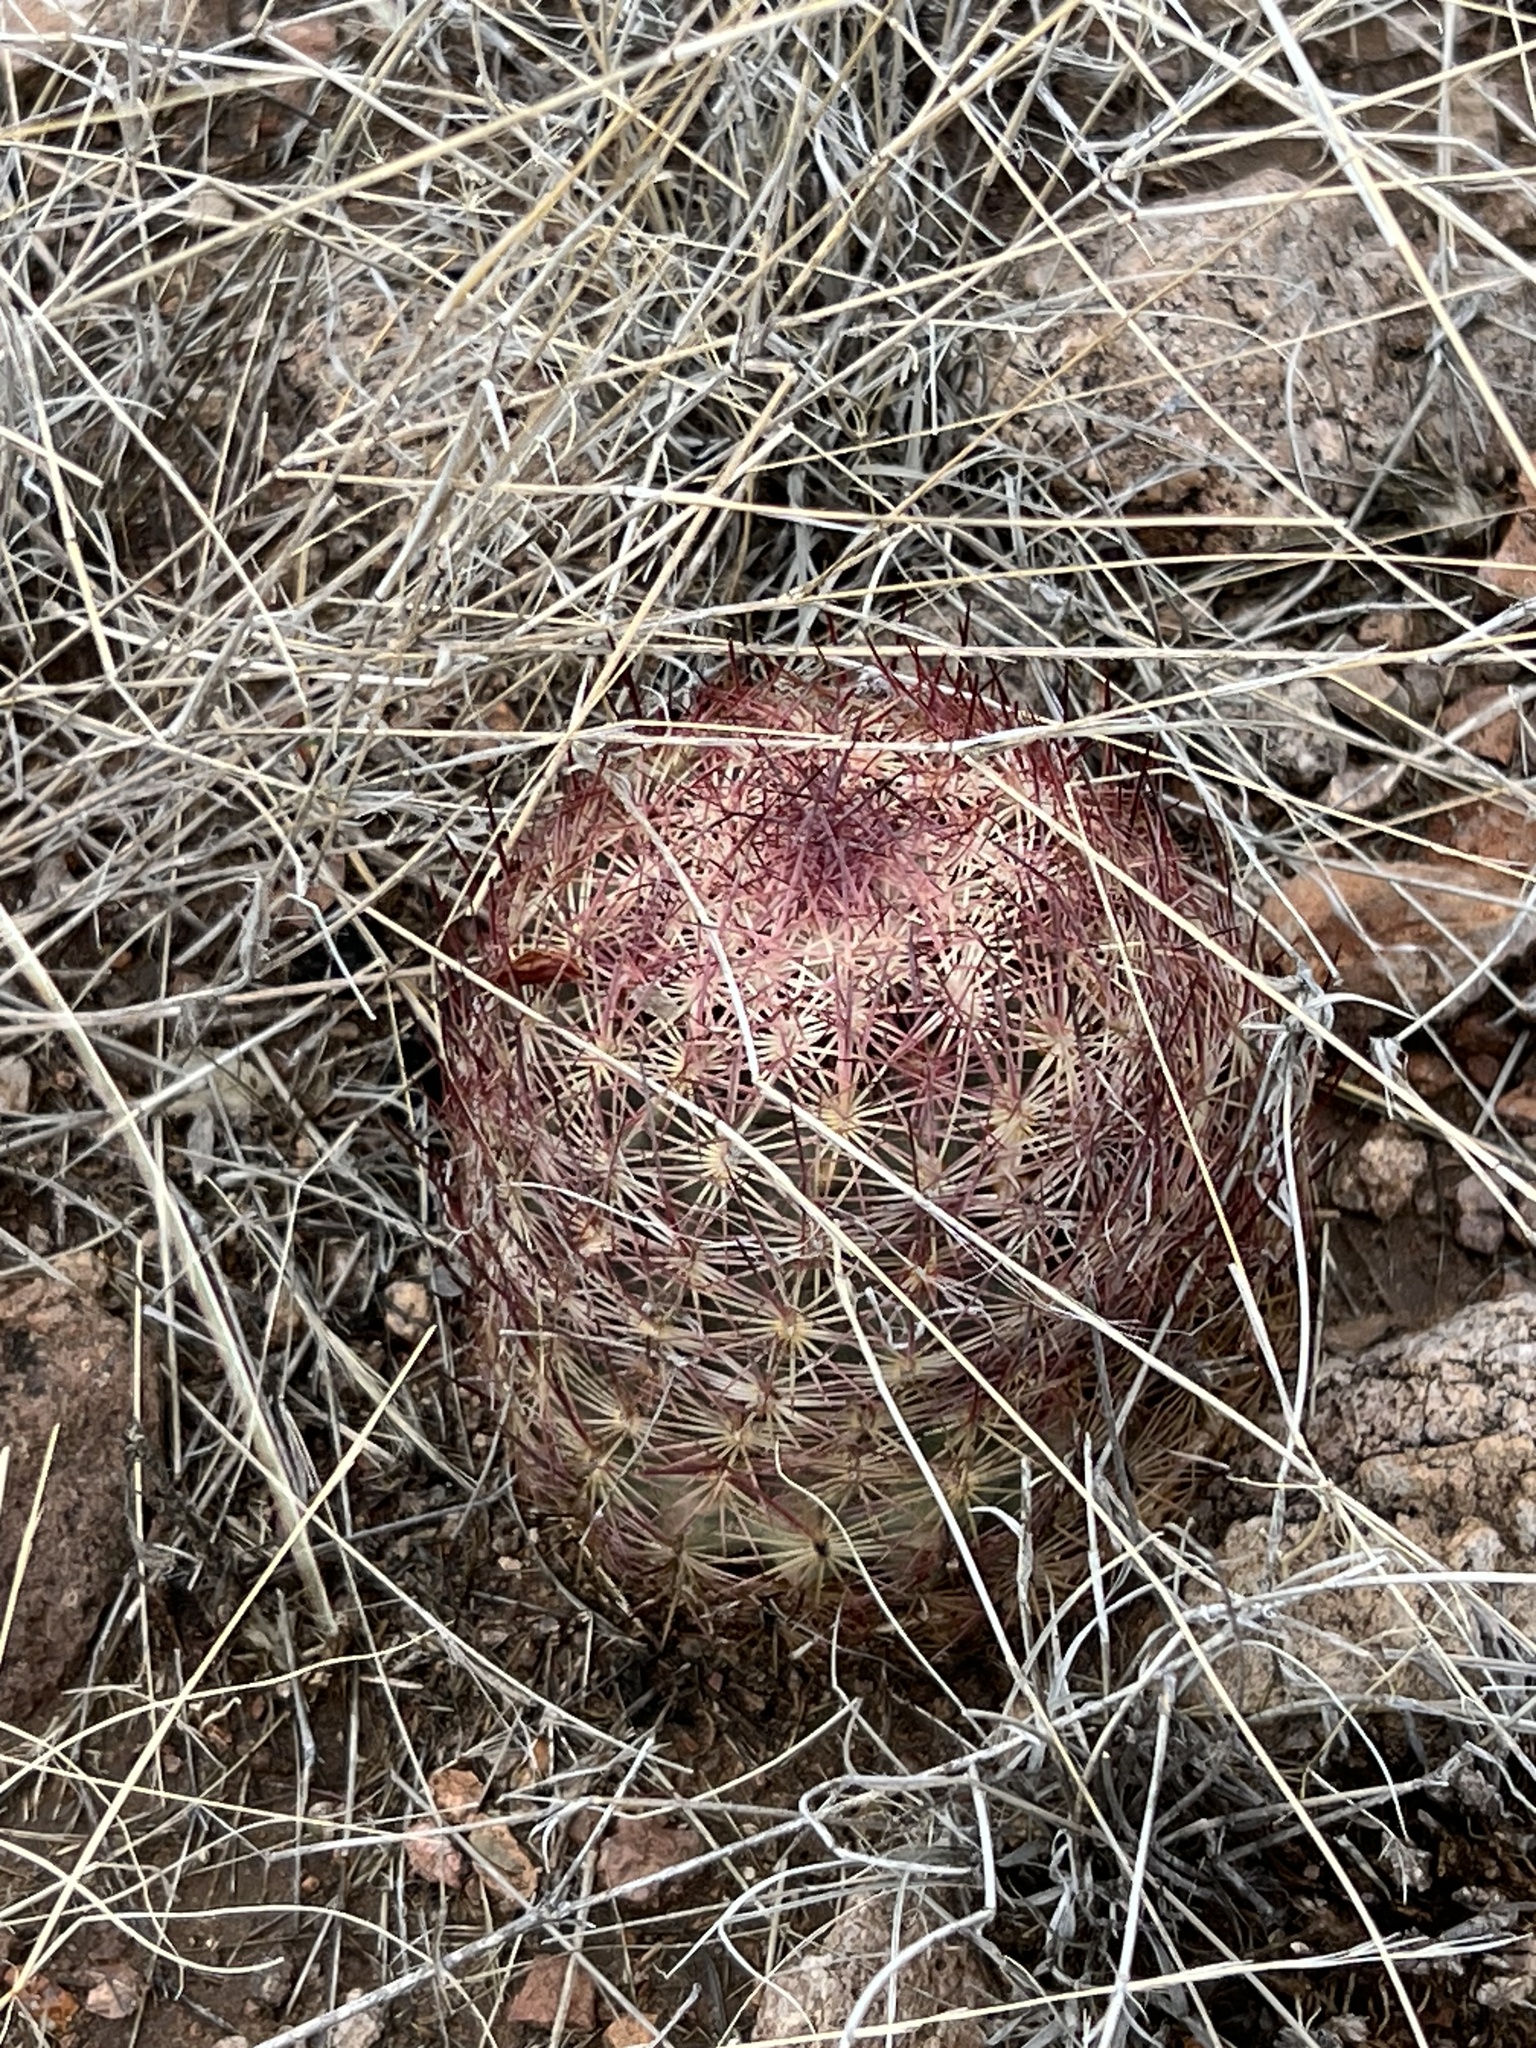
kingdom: Plantae
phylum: Tracheophyta
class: Magnoliopsida
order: Caryophyllales
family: Cactaceae
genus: Sclerocactus
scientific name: Sclerocactus johnsonii
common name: Eight-spine fishhook cactus
